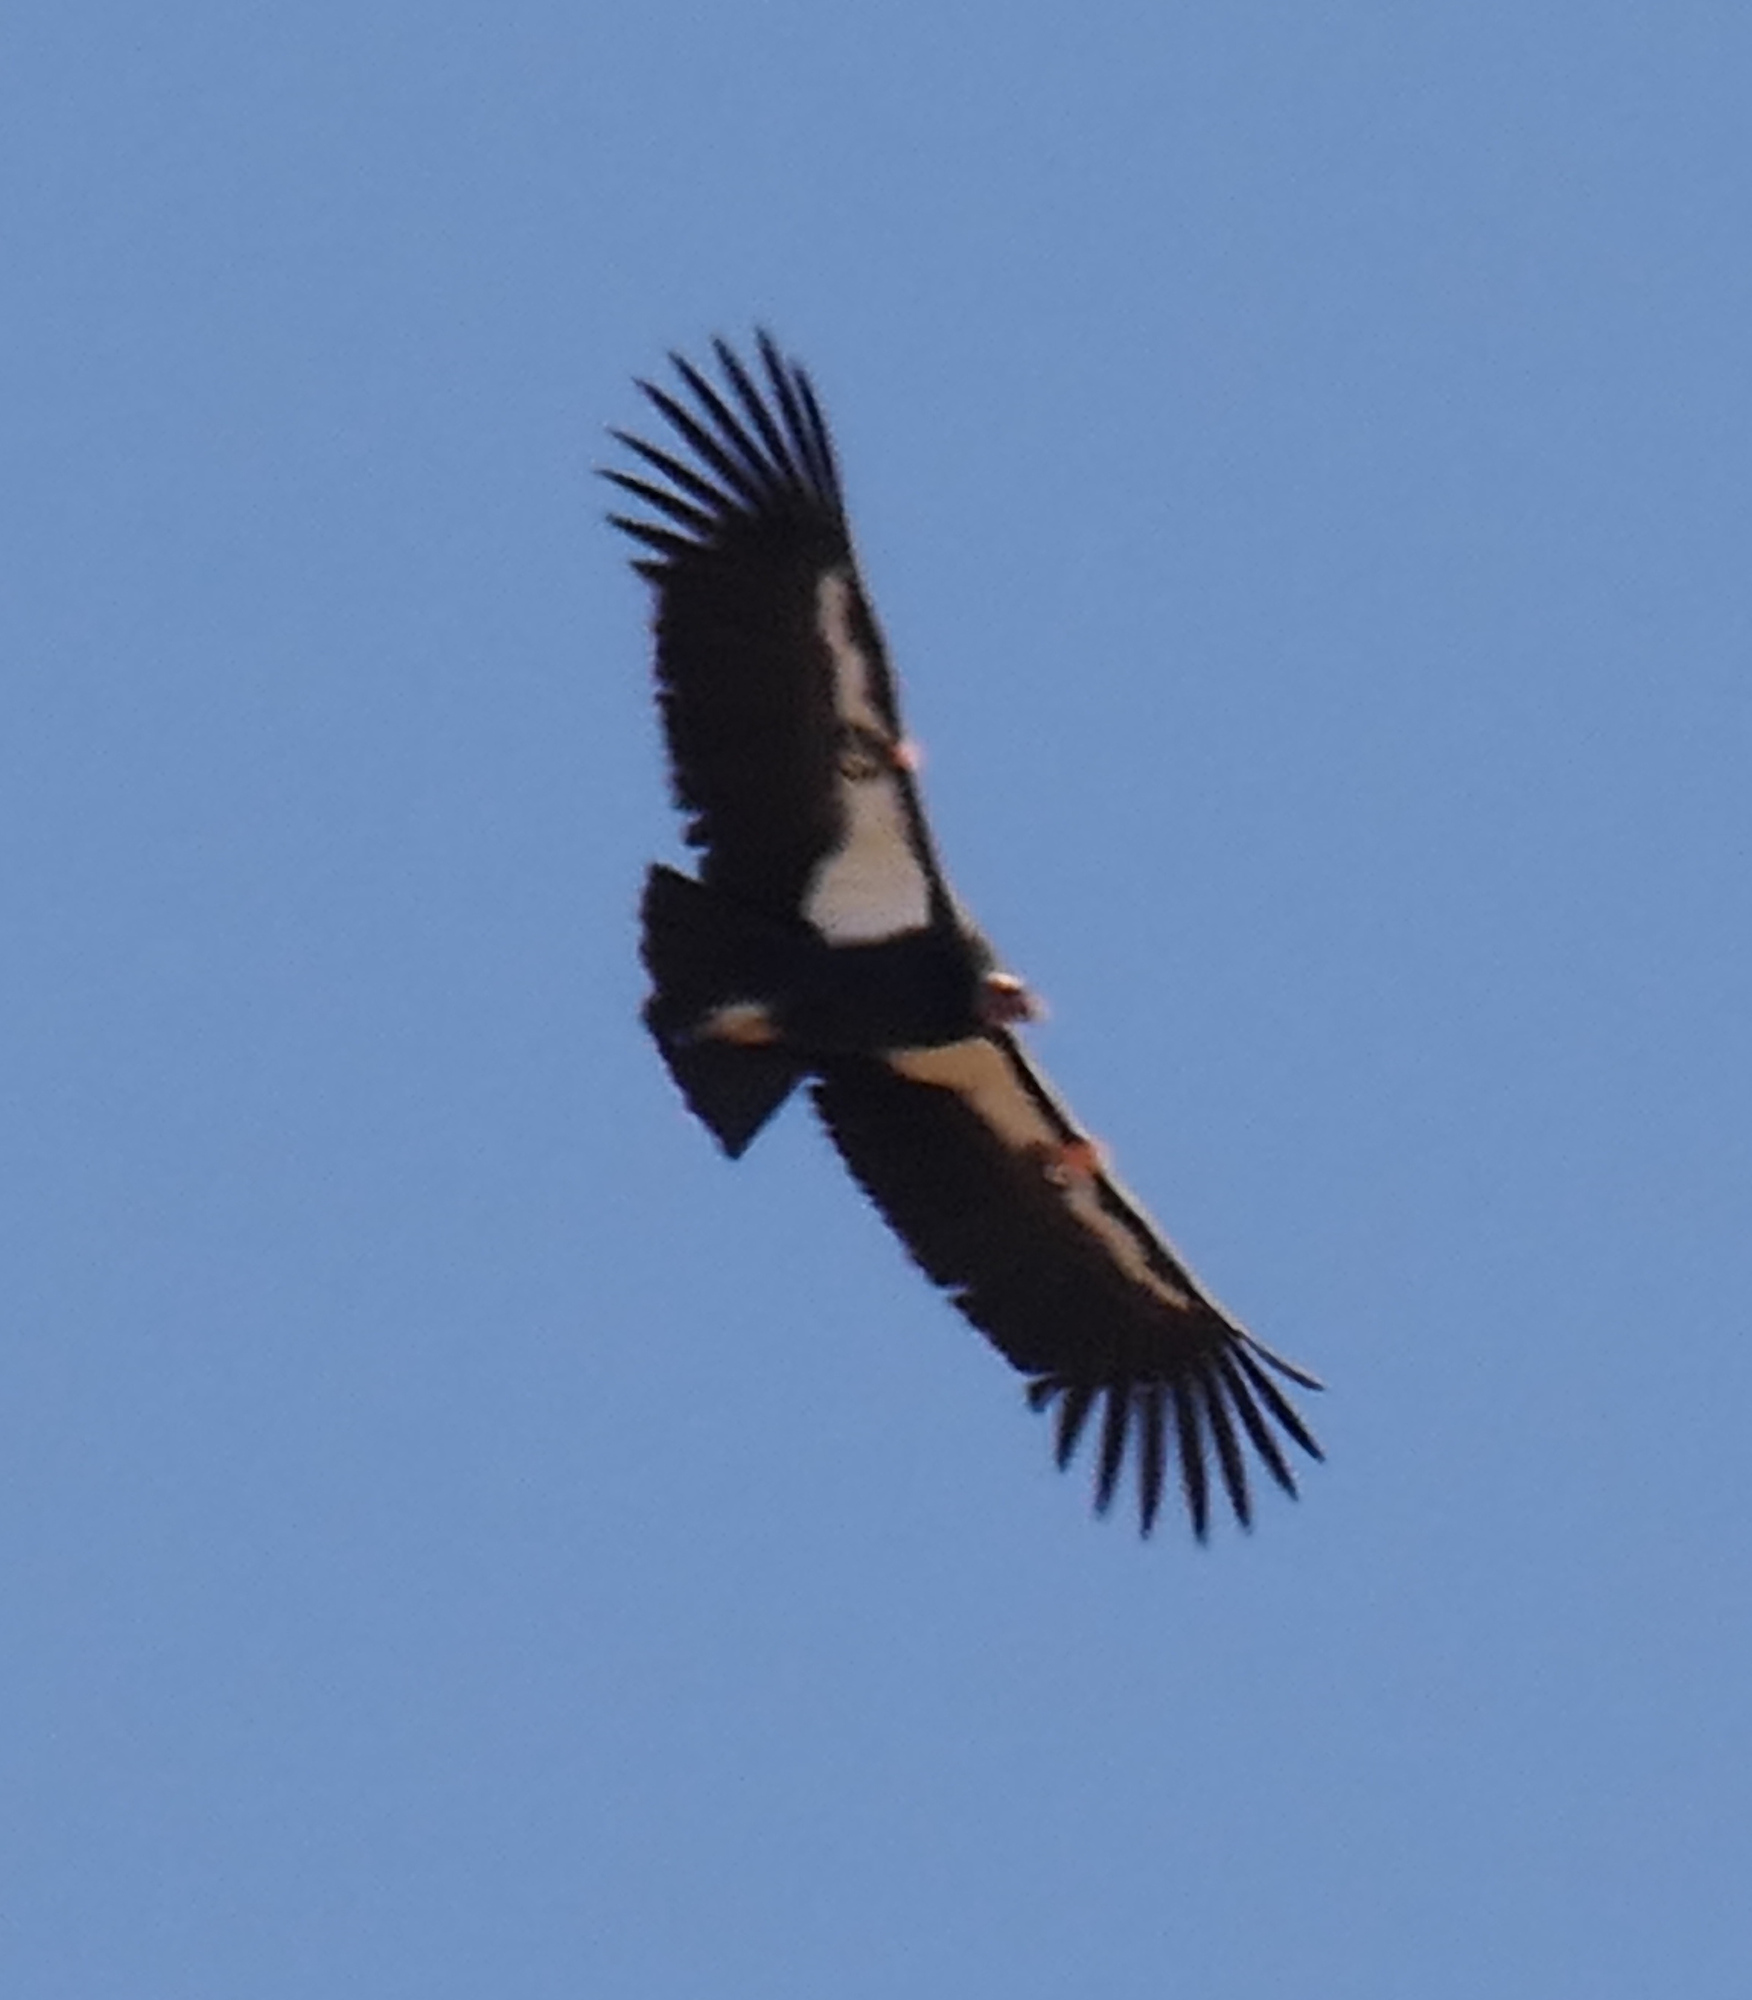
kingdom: Animalia
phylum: Chordata
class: Aves
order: Accipitriformes
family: Cathartidae
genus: Gymnogyps
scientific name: Gymnogyps californianus
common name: California condor
